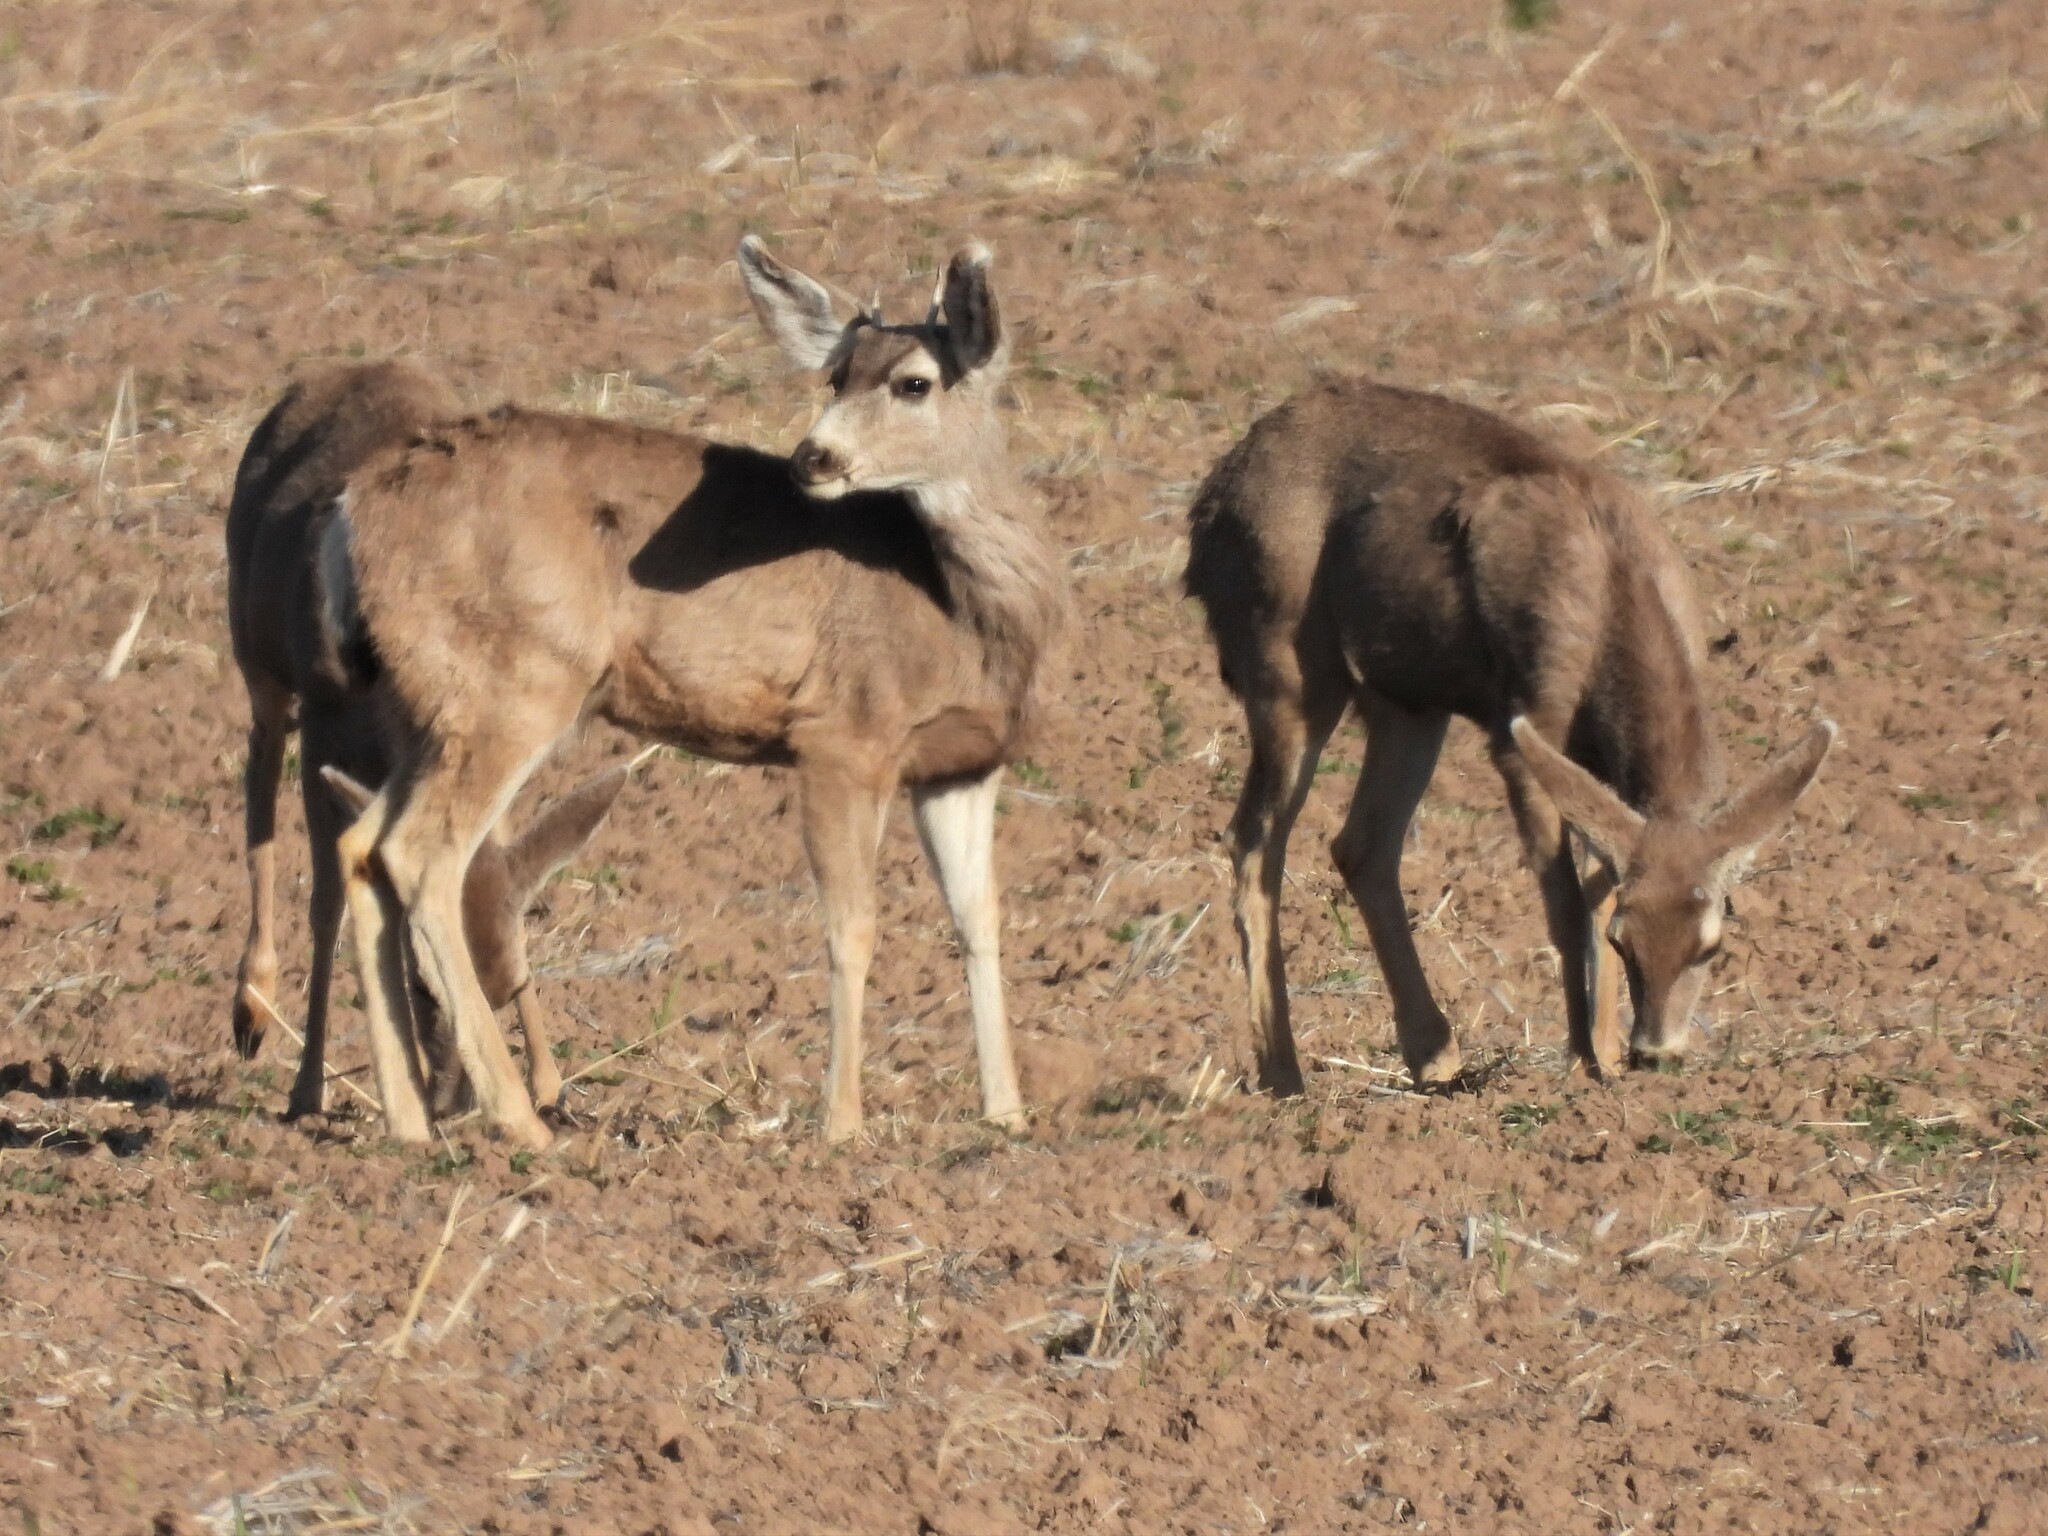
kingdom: Animalia
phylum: Chordata
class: Mammalia
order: Artiodactyla
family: Cervidae
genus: Odocoileus
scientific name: Odocoileus hemionus
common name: Mule deer
